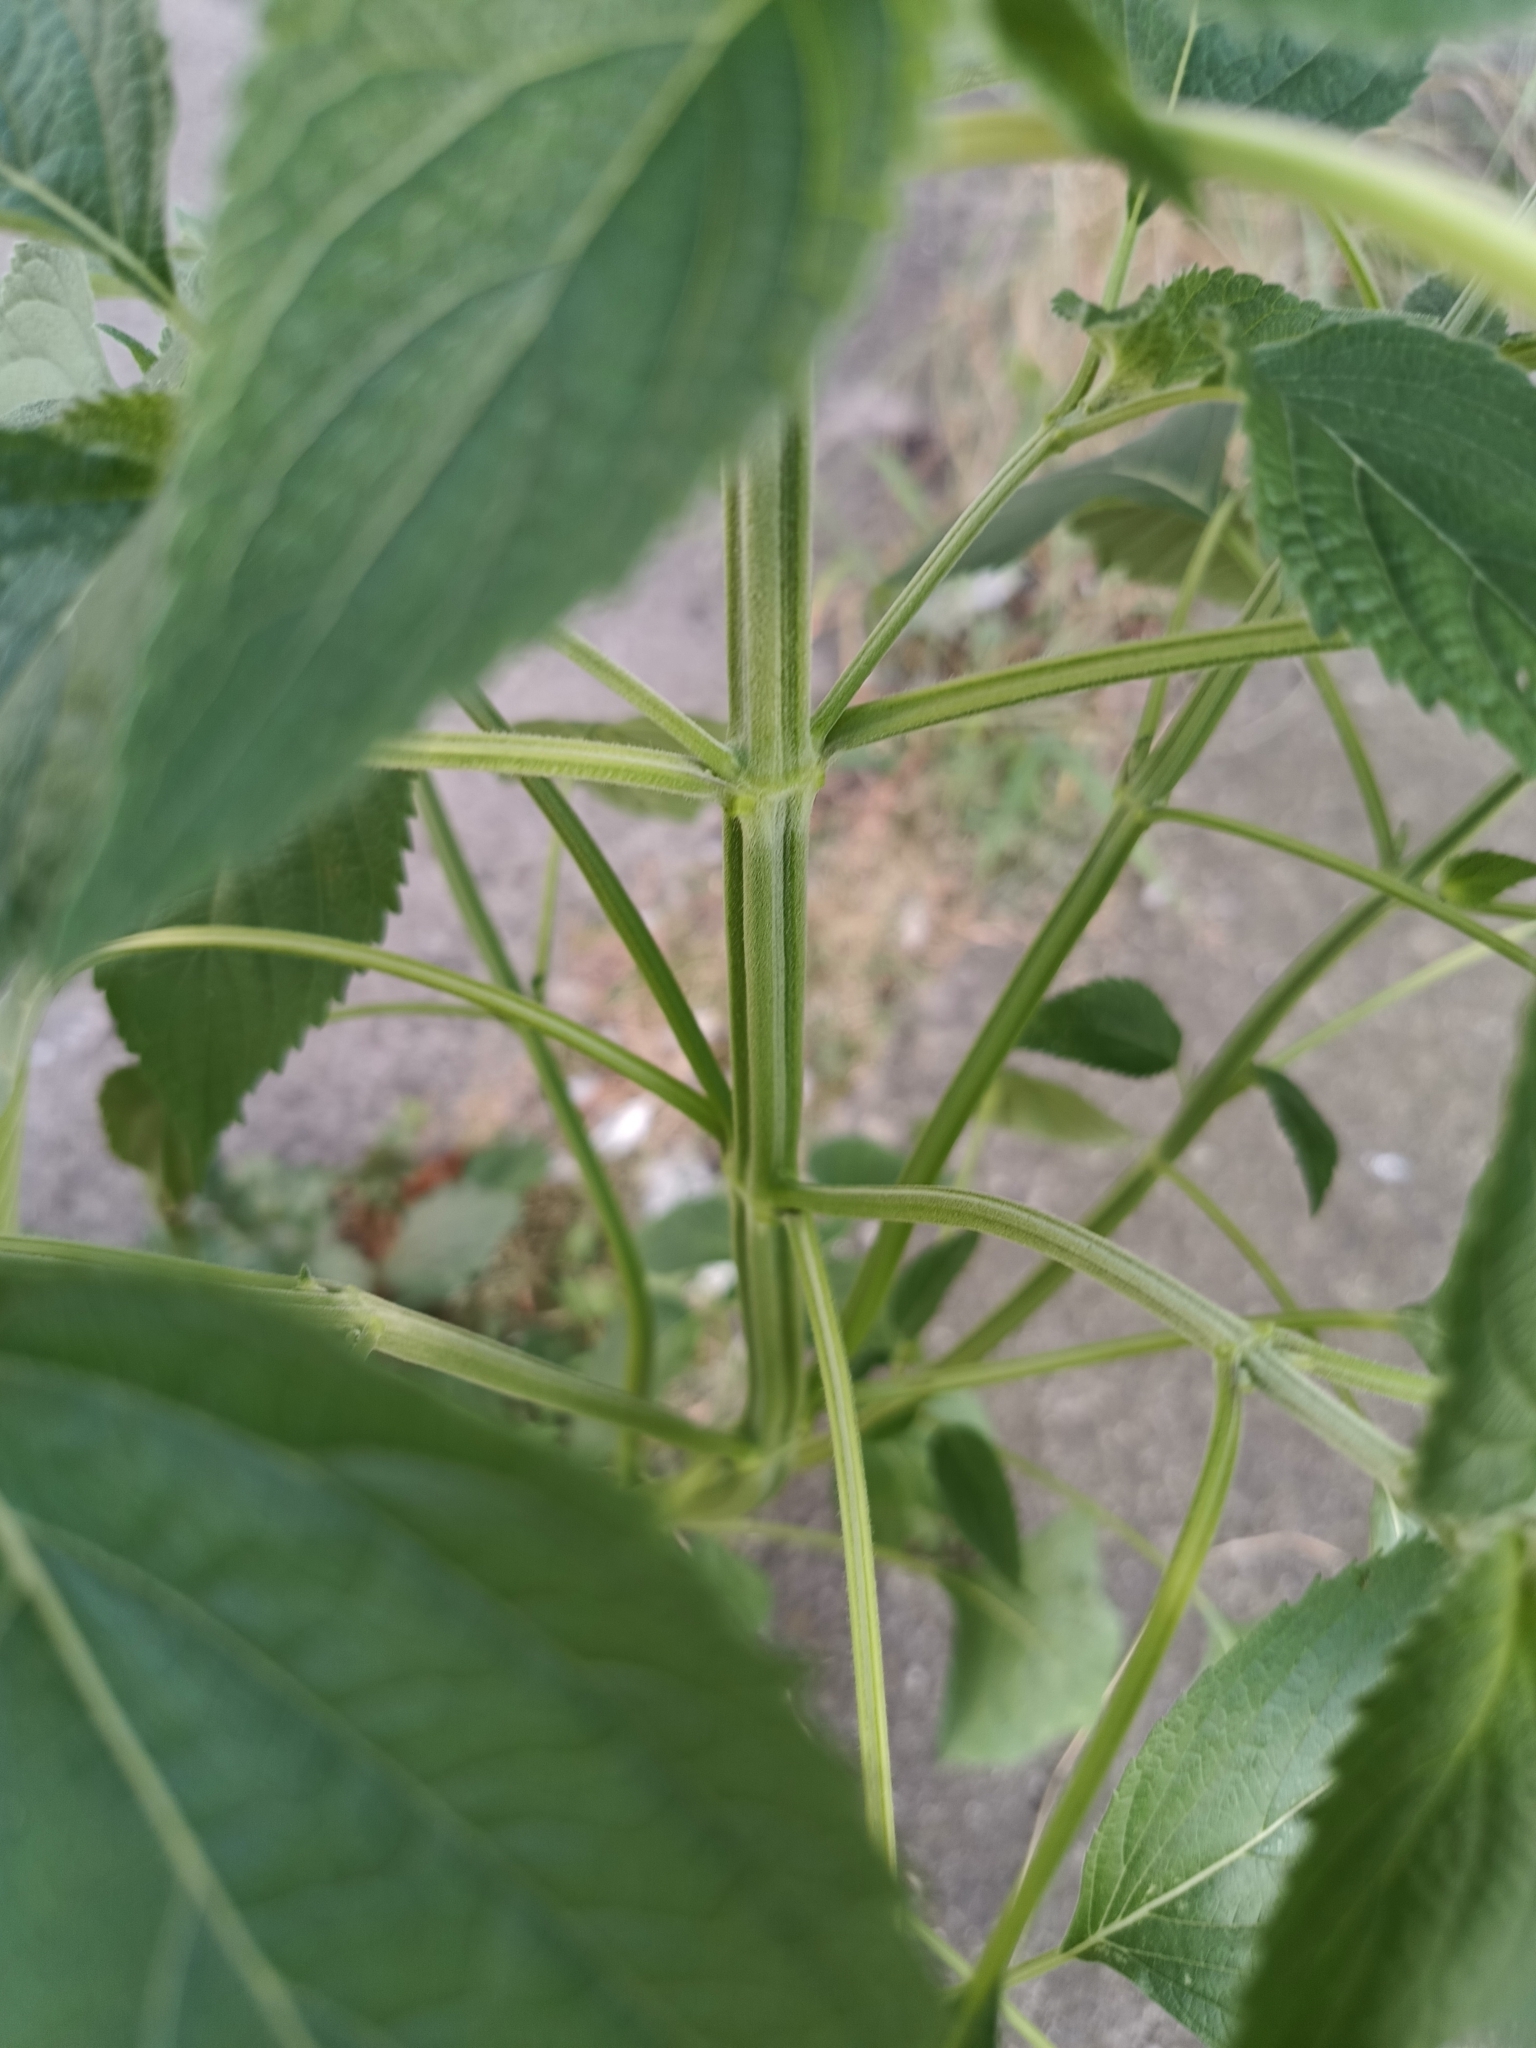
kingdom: Plantae
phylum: Tracheophyta
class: Magnoliopsida
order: Lamiales
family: Lamiaceae
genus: Salvia
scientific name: Salvia hispanica
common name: Chia
